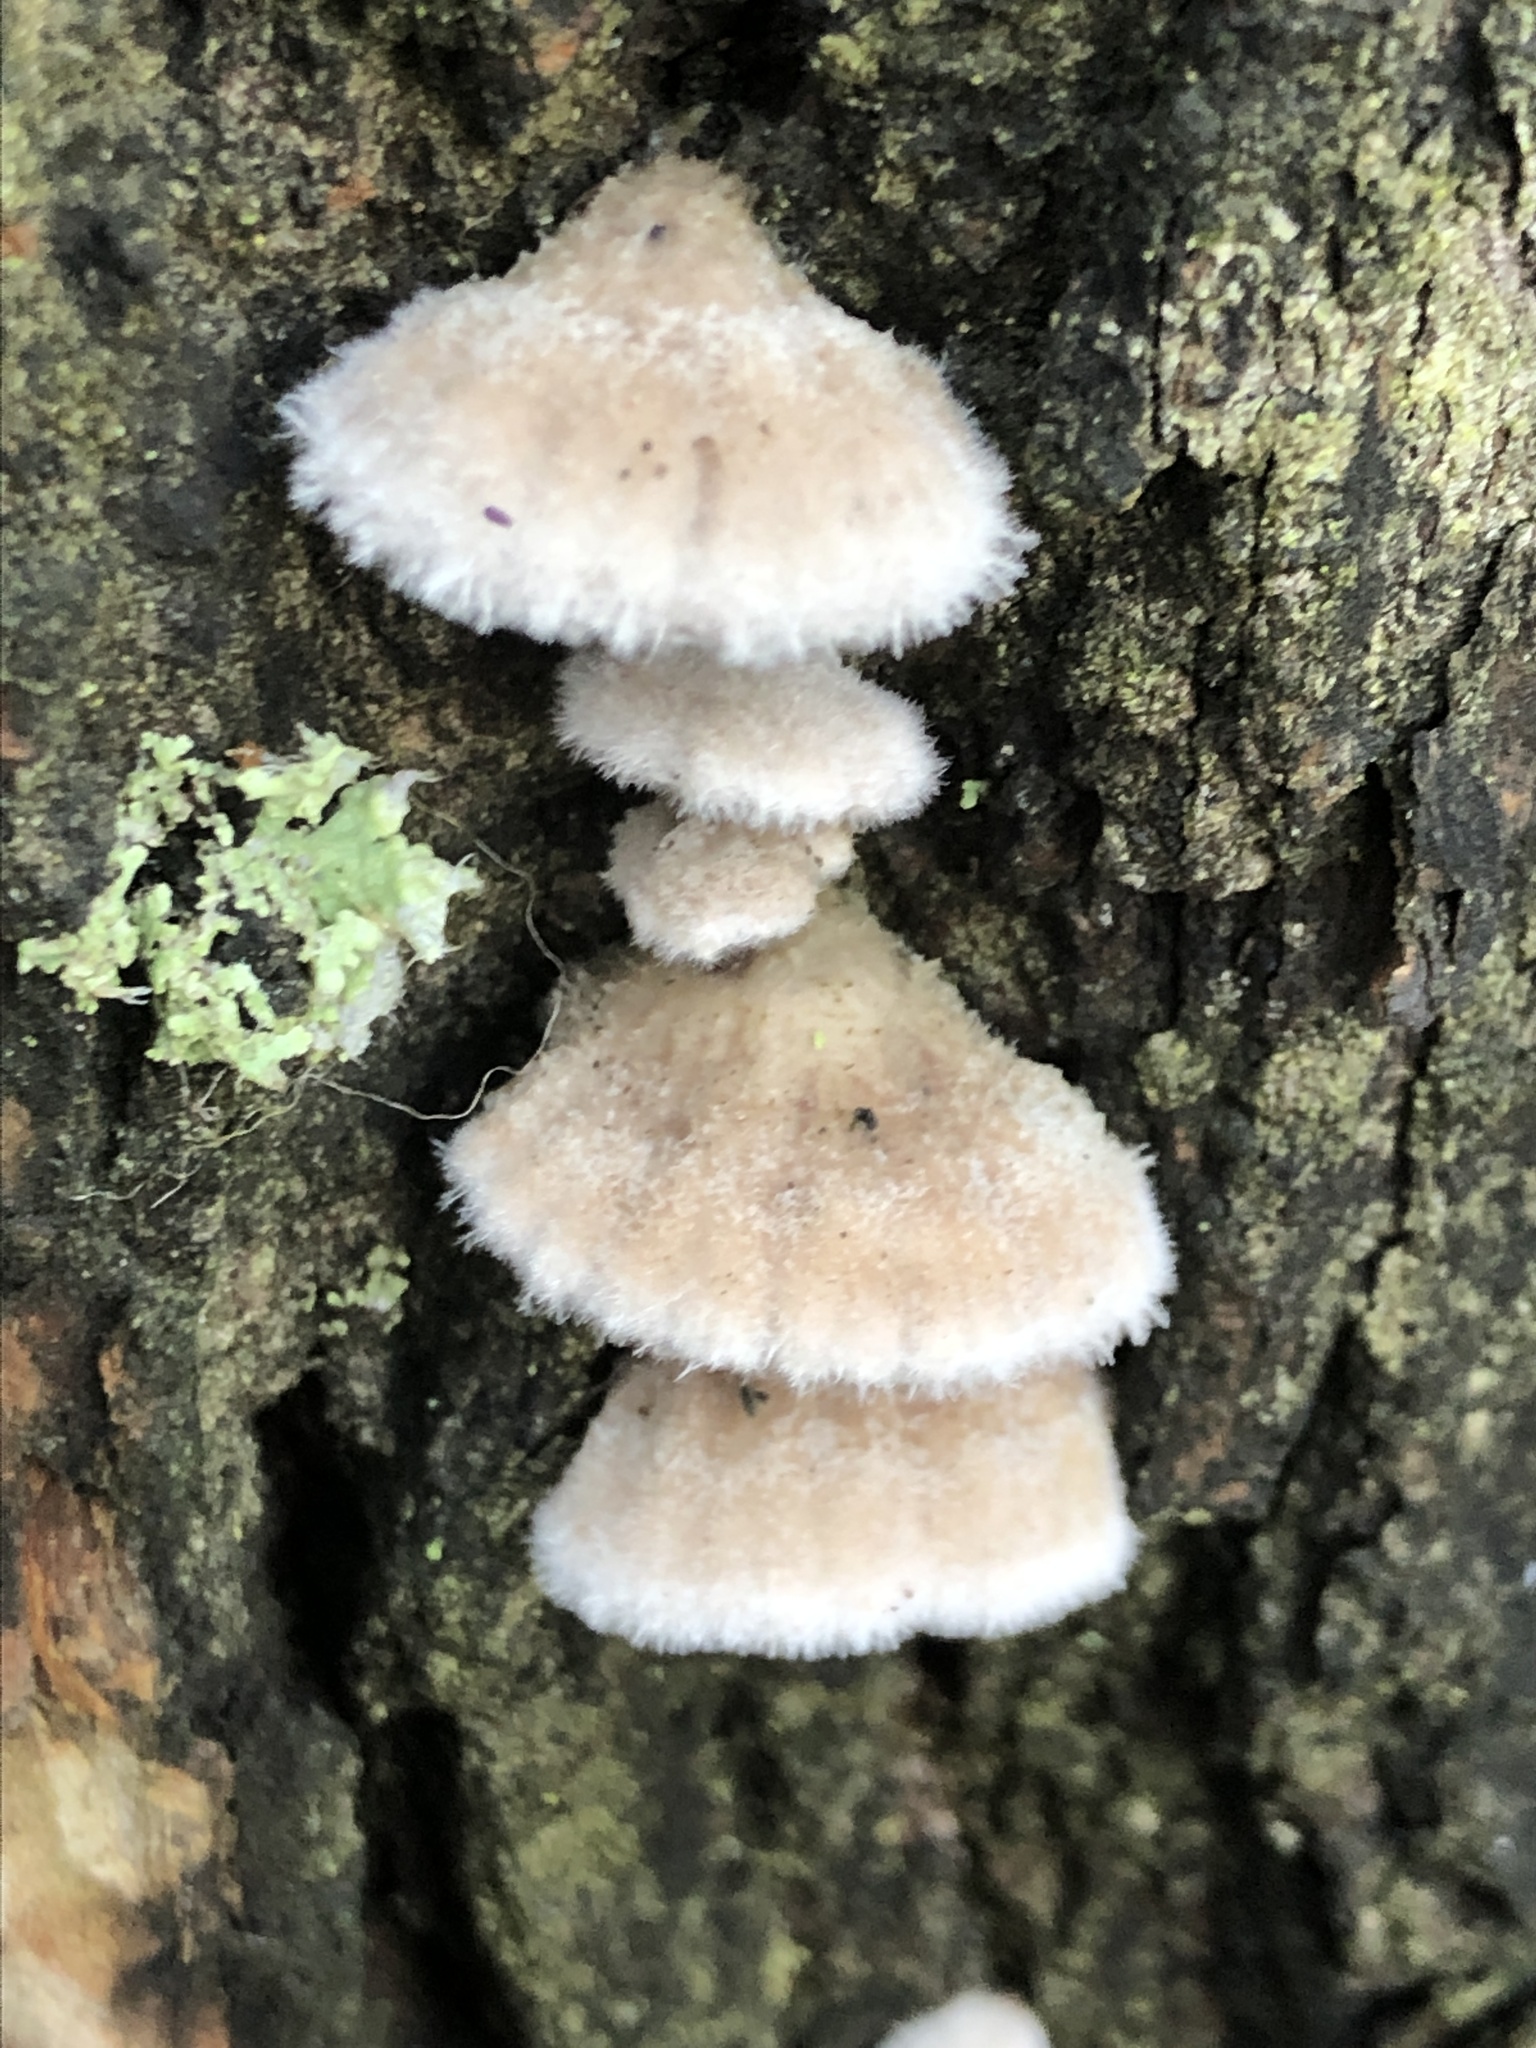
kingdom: Fungi
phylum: Basidiomycota
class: Agaricomycetes
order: Agaricales
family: Schizophyllaceae
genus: Schizophyllum
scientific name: Schizophyllum commune
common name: Common porecrust
